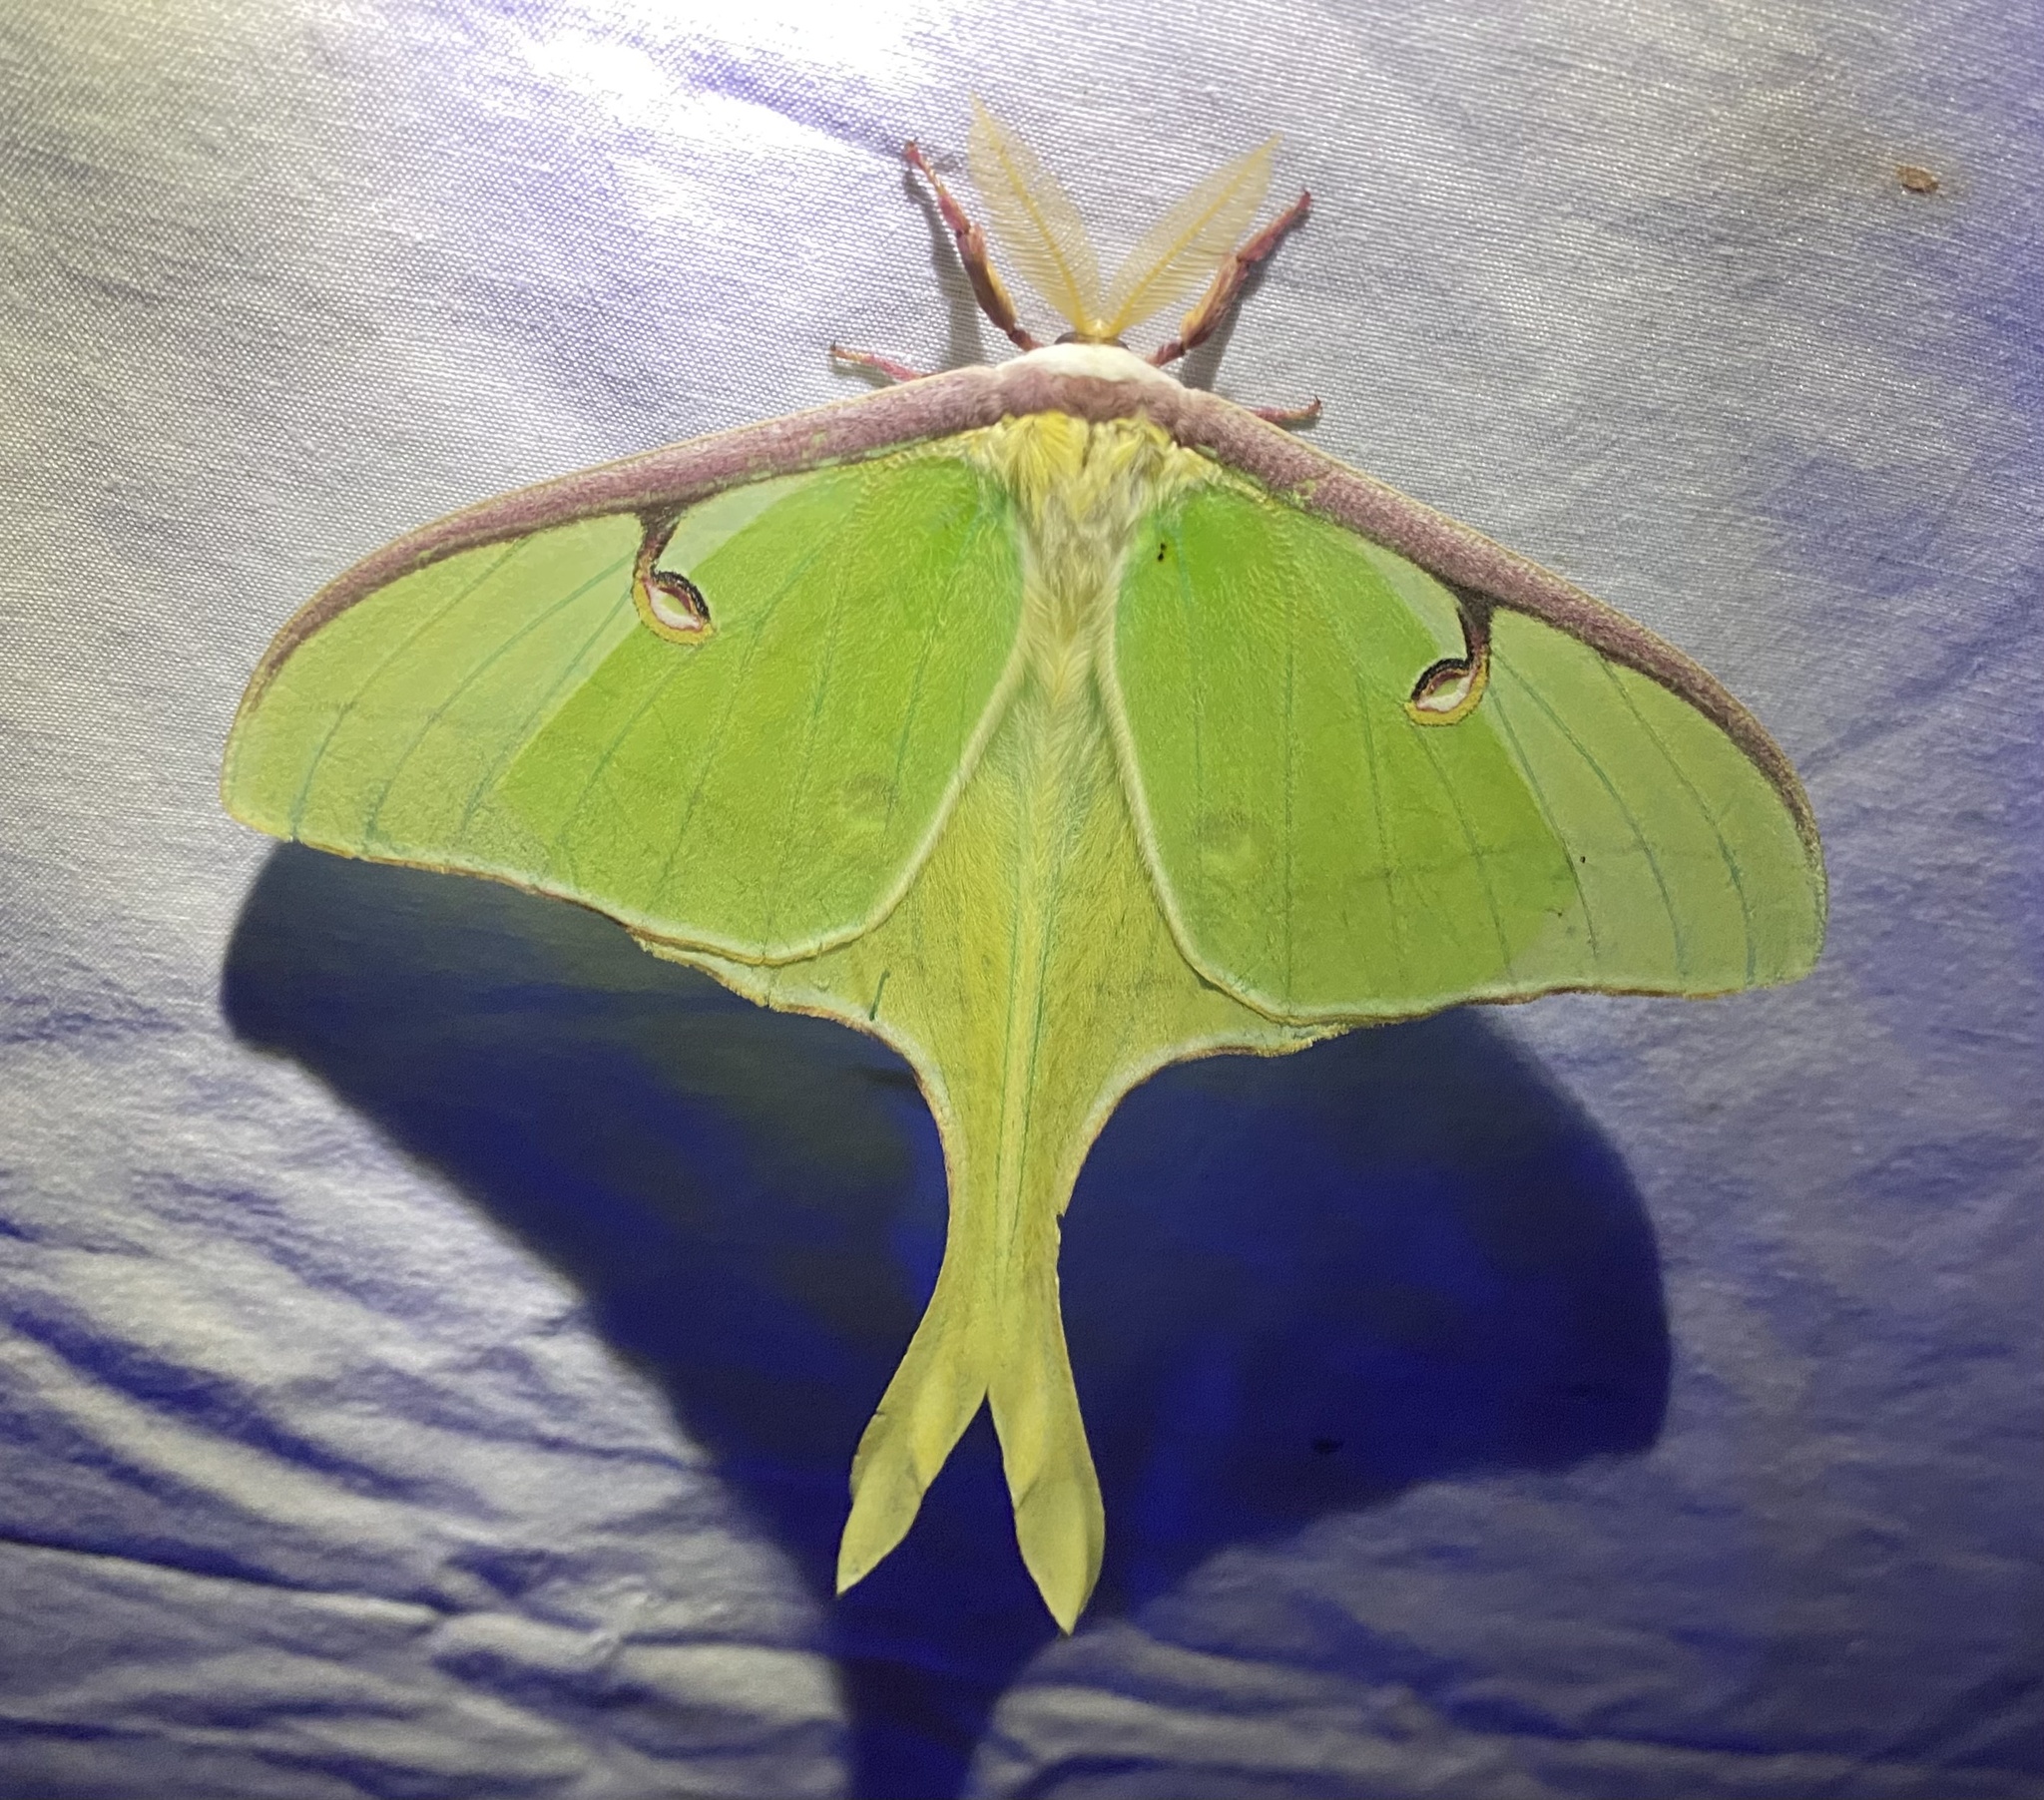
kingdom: Animalia
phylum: Arthropoda
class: Insecta
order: Lepidoptera
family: Saturniidae
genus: Actias
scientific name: Actias luna
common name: Luna moth
